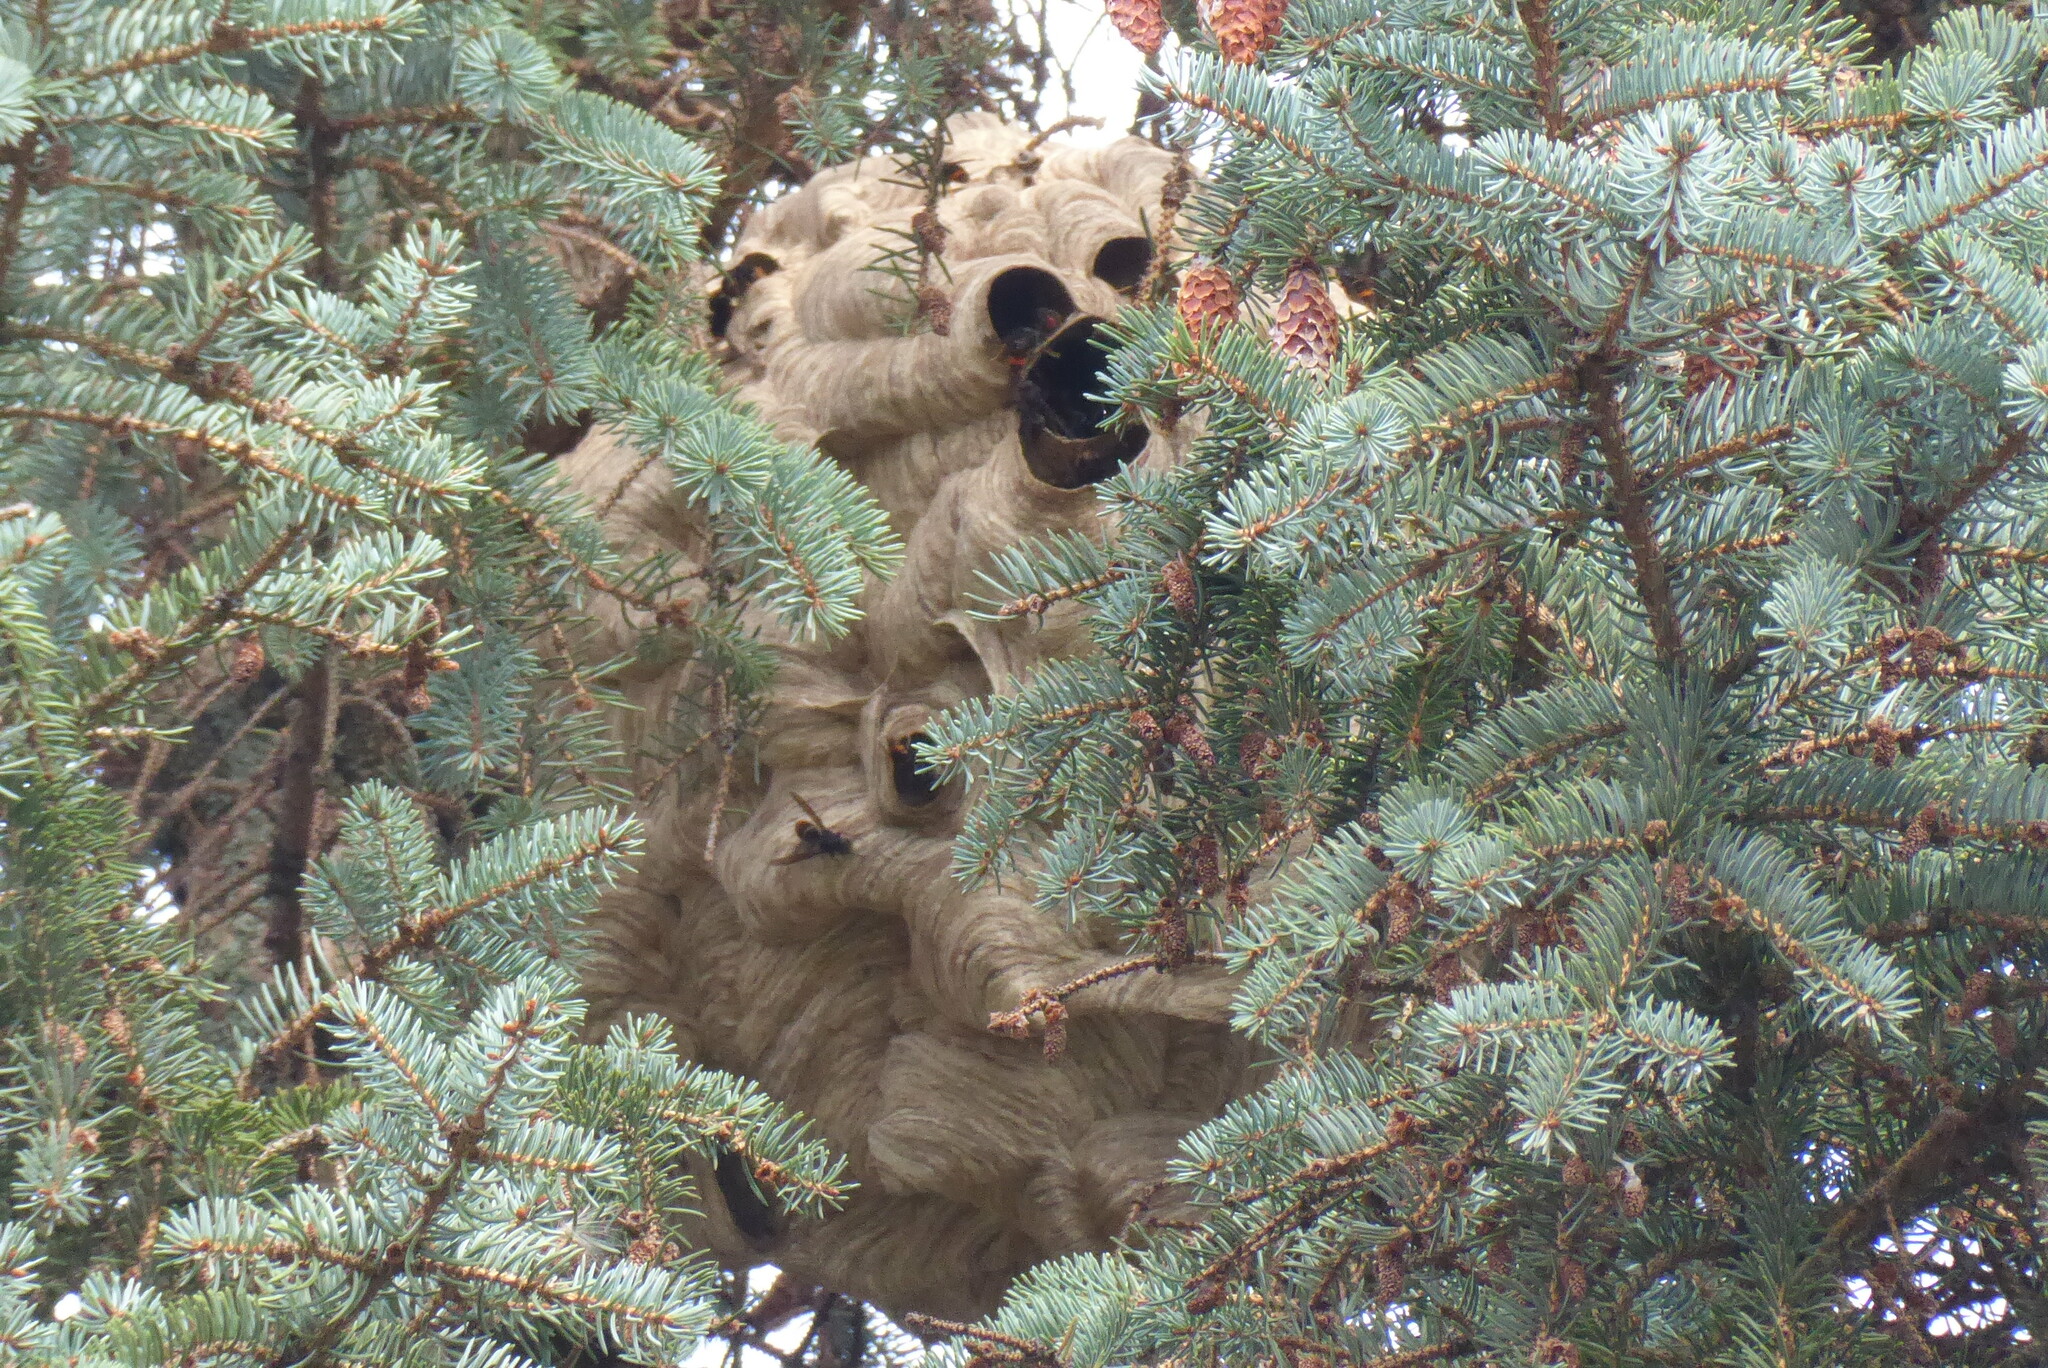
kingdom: Animalia
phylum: Arthropoda
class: Insecta
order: Hymenoptera
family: Vespidae
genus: Vespa
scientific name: Vespa velutina
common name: Asian hornet
